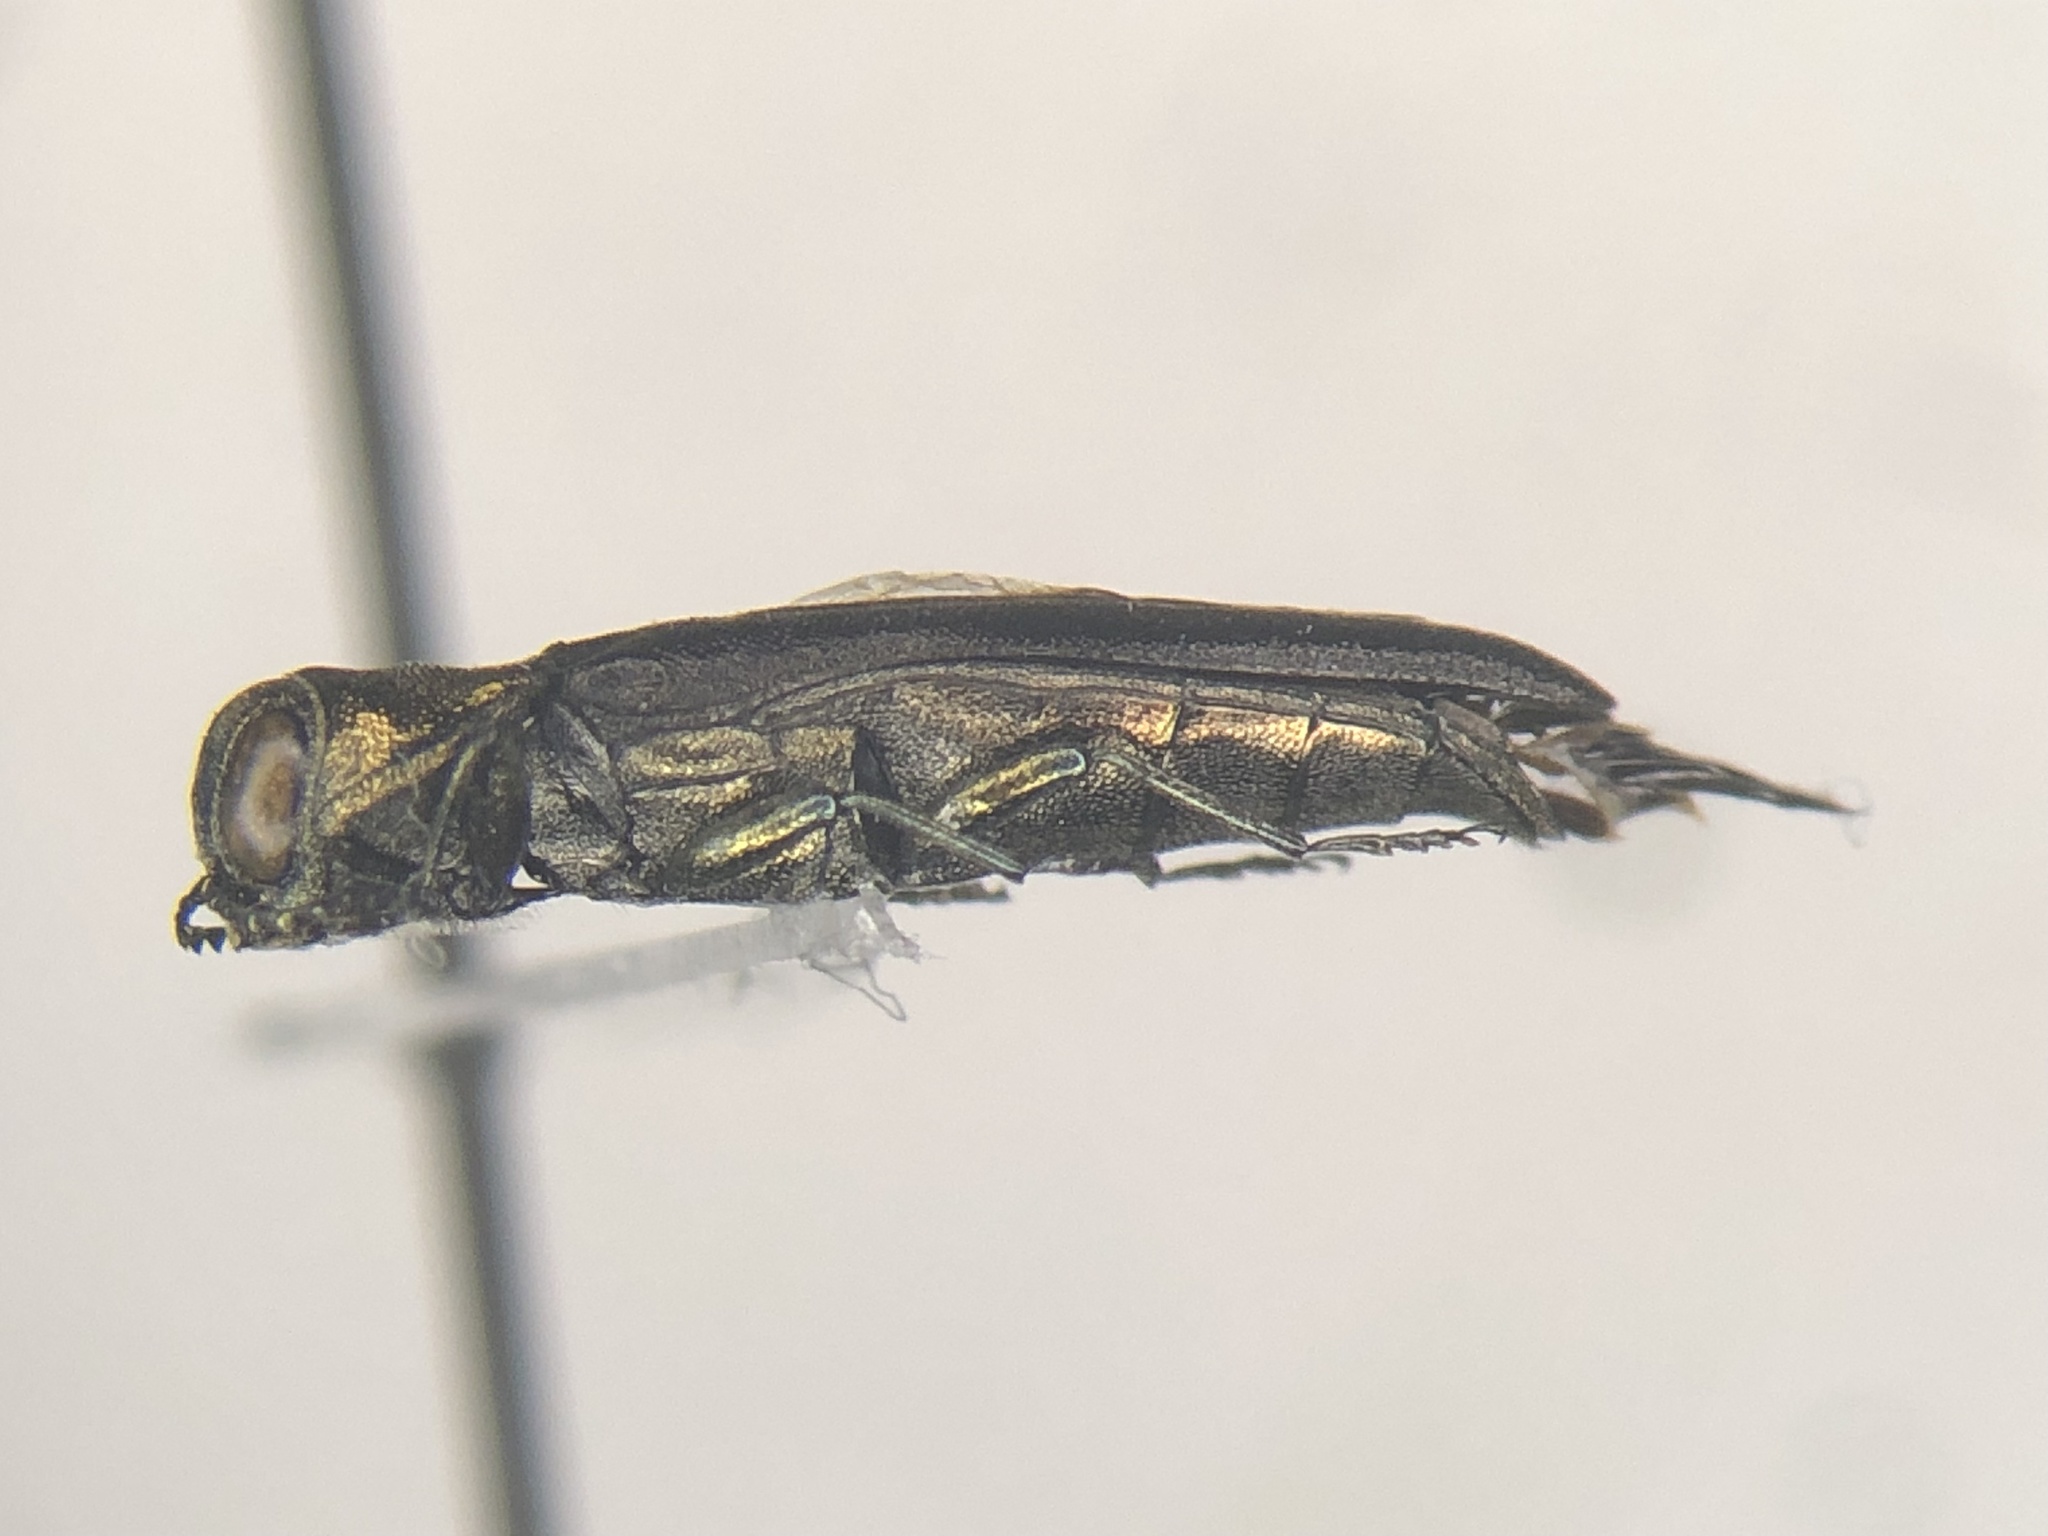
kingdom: Animalia
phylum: Arthropoda
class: Insecta
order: Coleoptera
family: Buprestidae
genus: Agrilus
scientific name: Agrilus arcuatus
